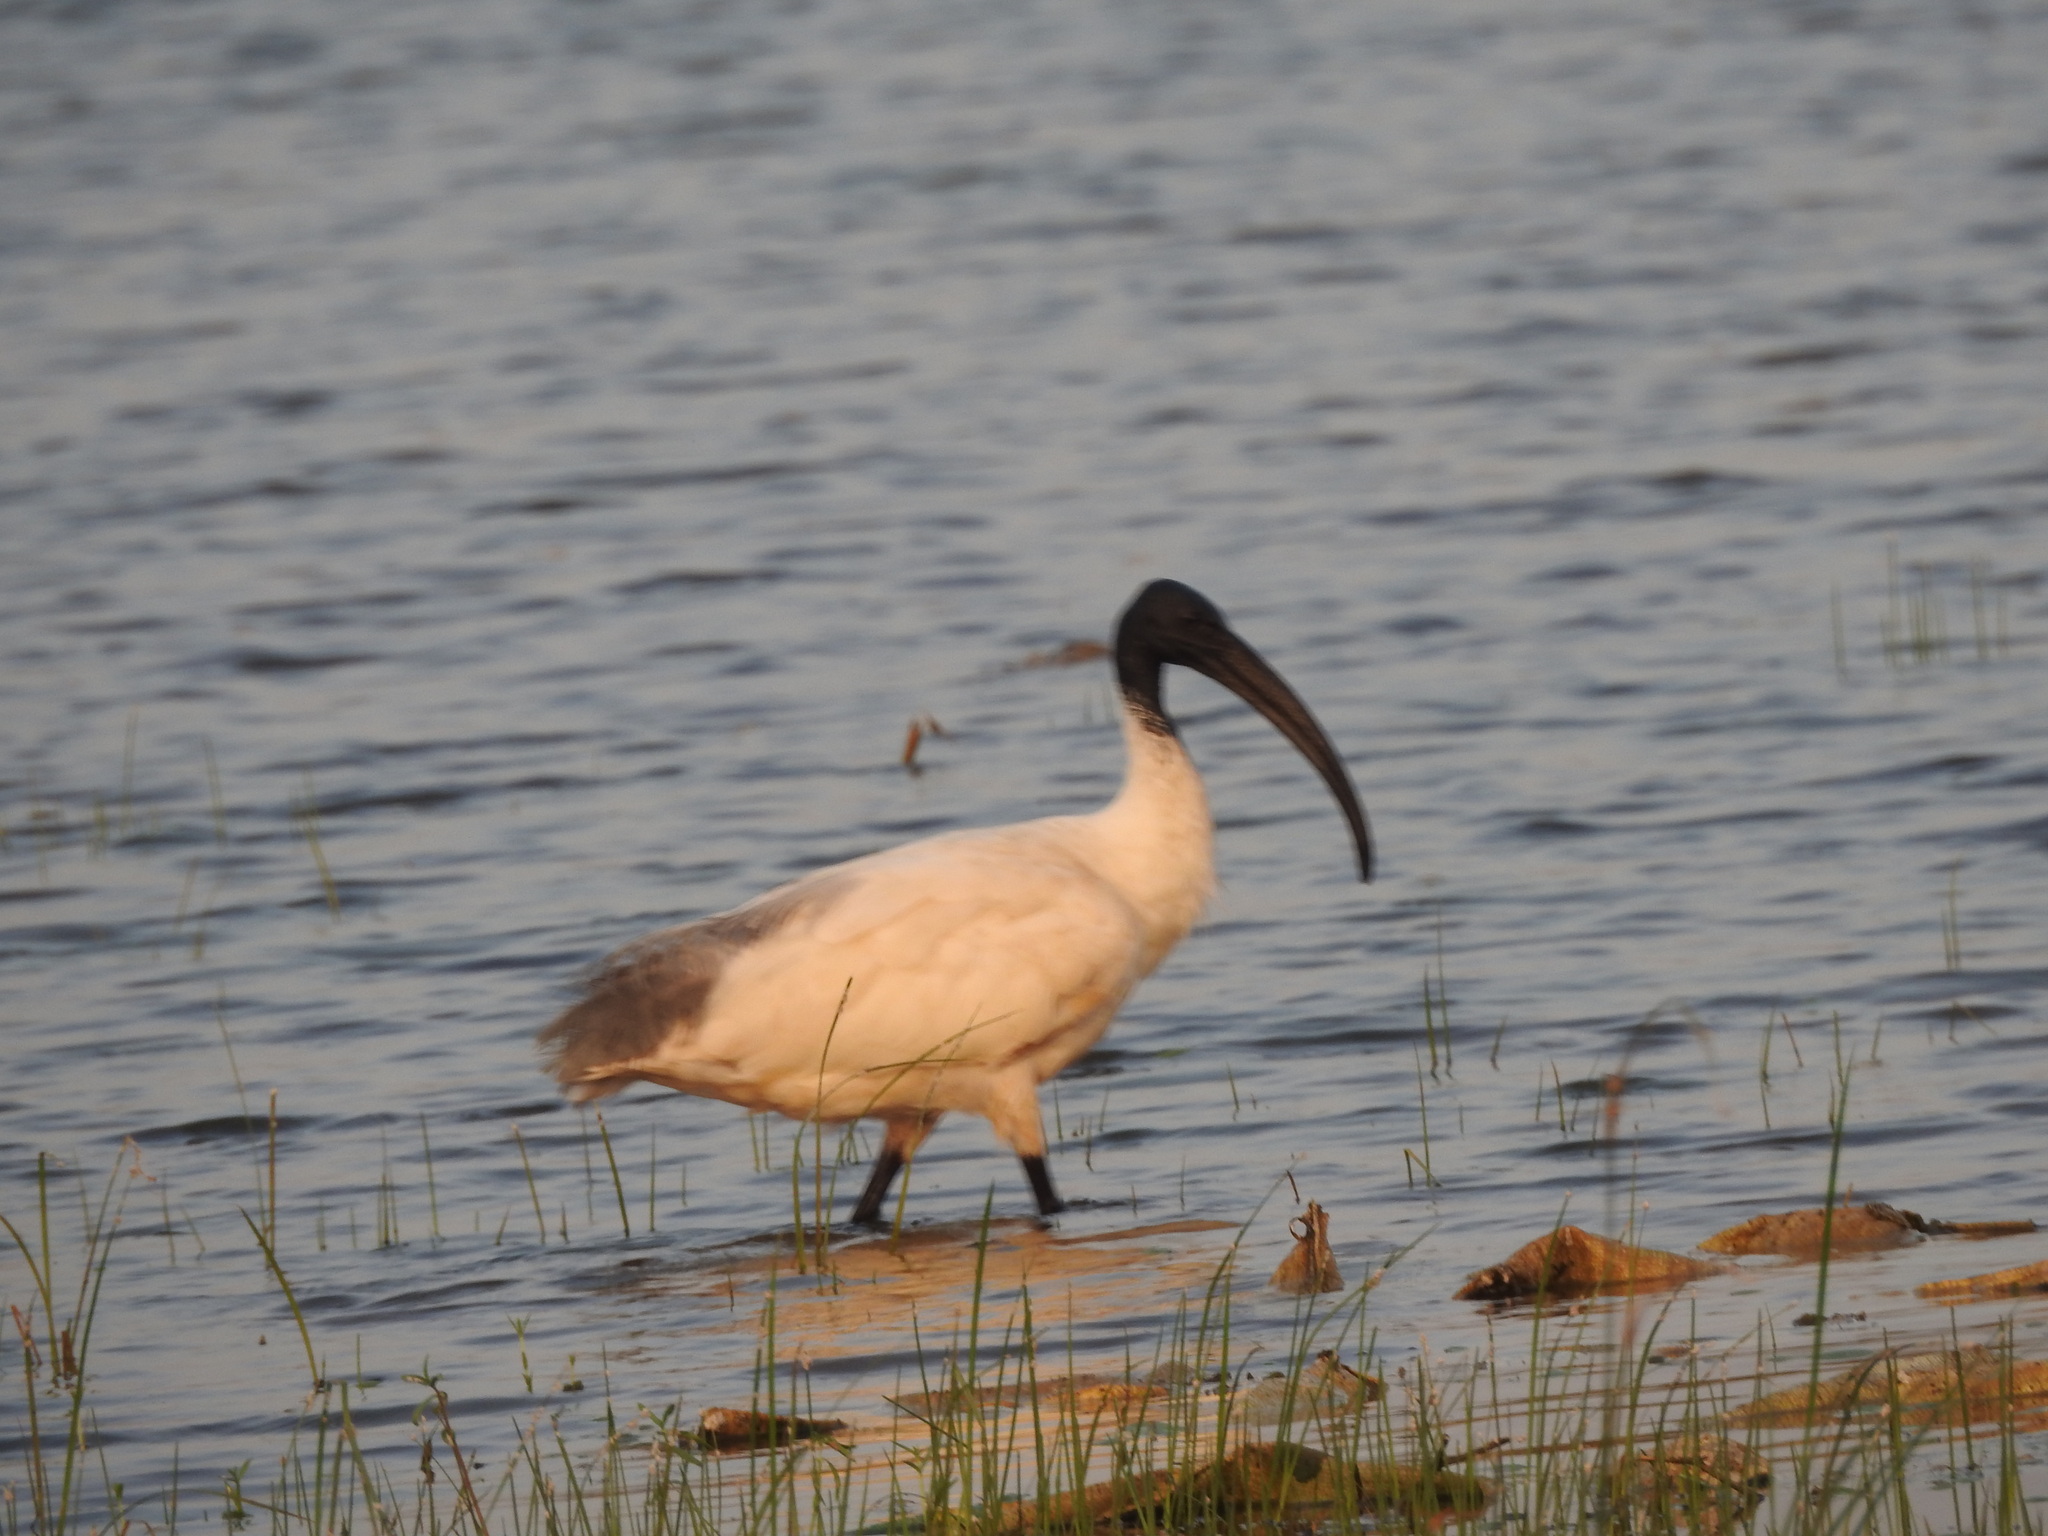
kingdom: Animalia
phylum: Chordata
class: Aves
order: Pelecaniformes
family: Threskiornithidae
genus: Threskiornis
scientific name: Threskiornis melanocephalus
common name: Black-headed ibis
